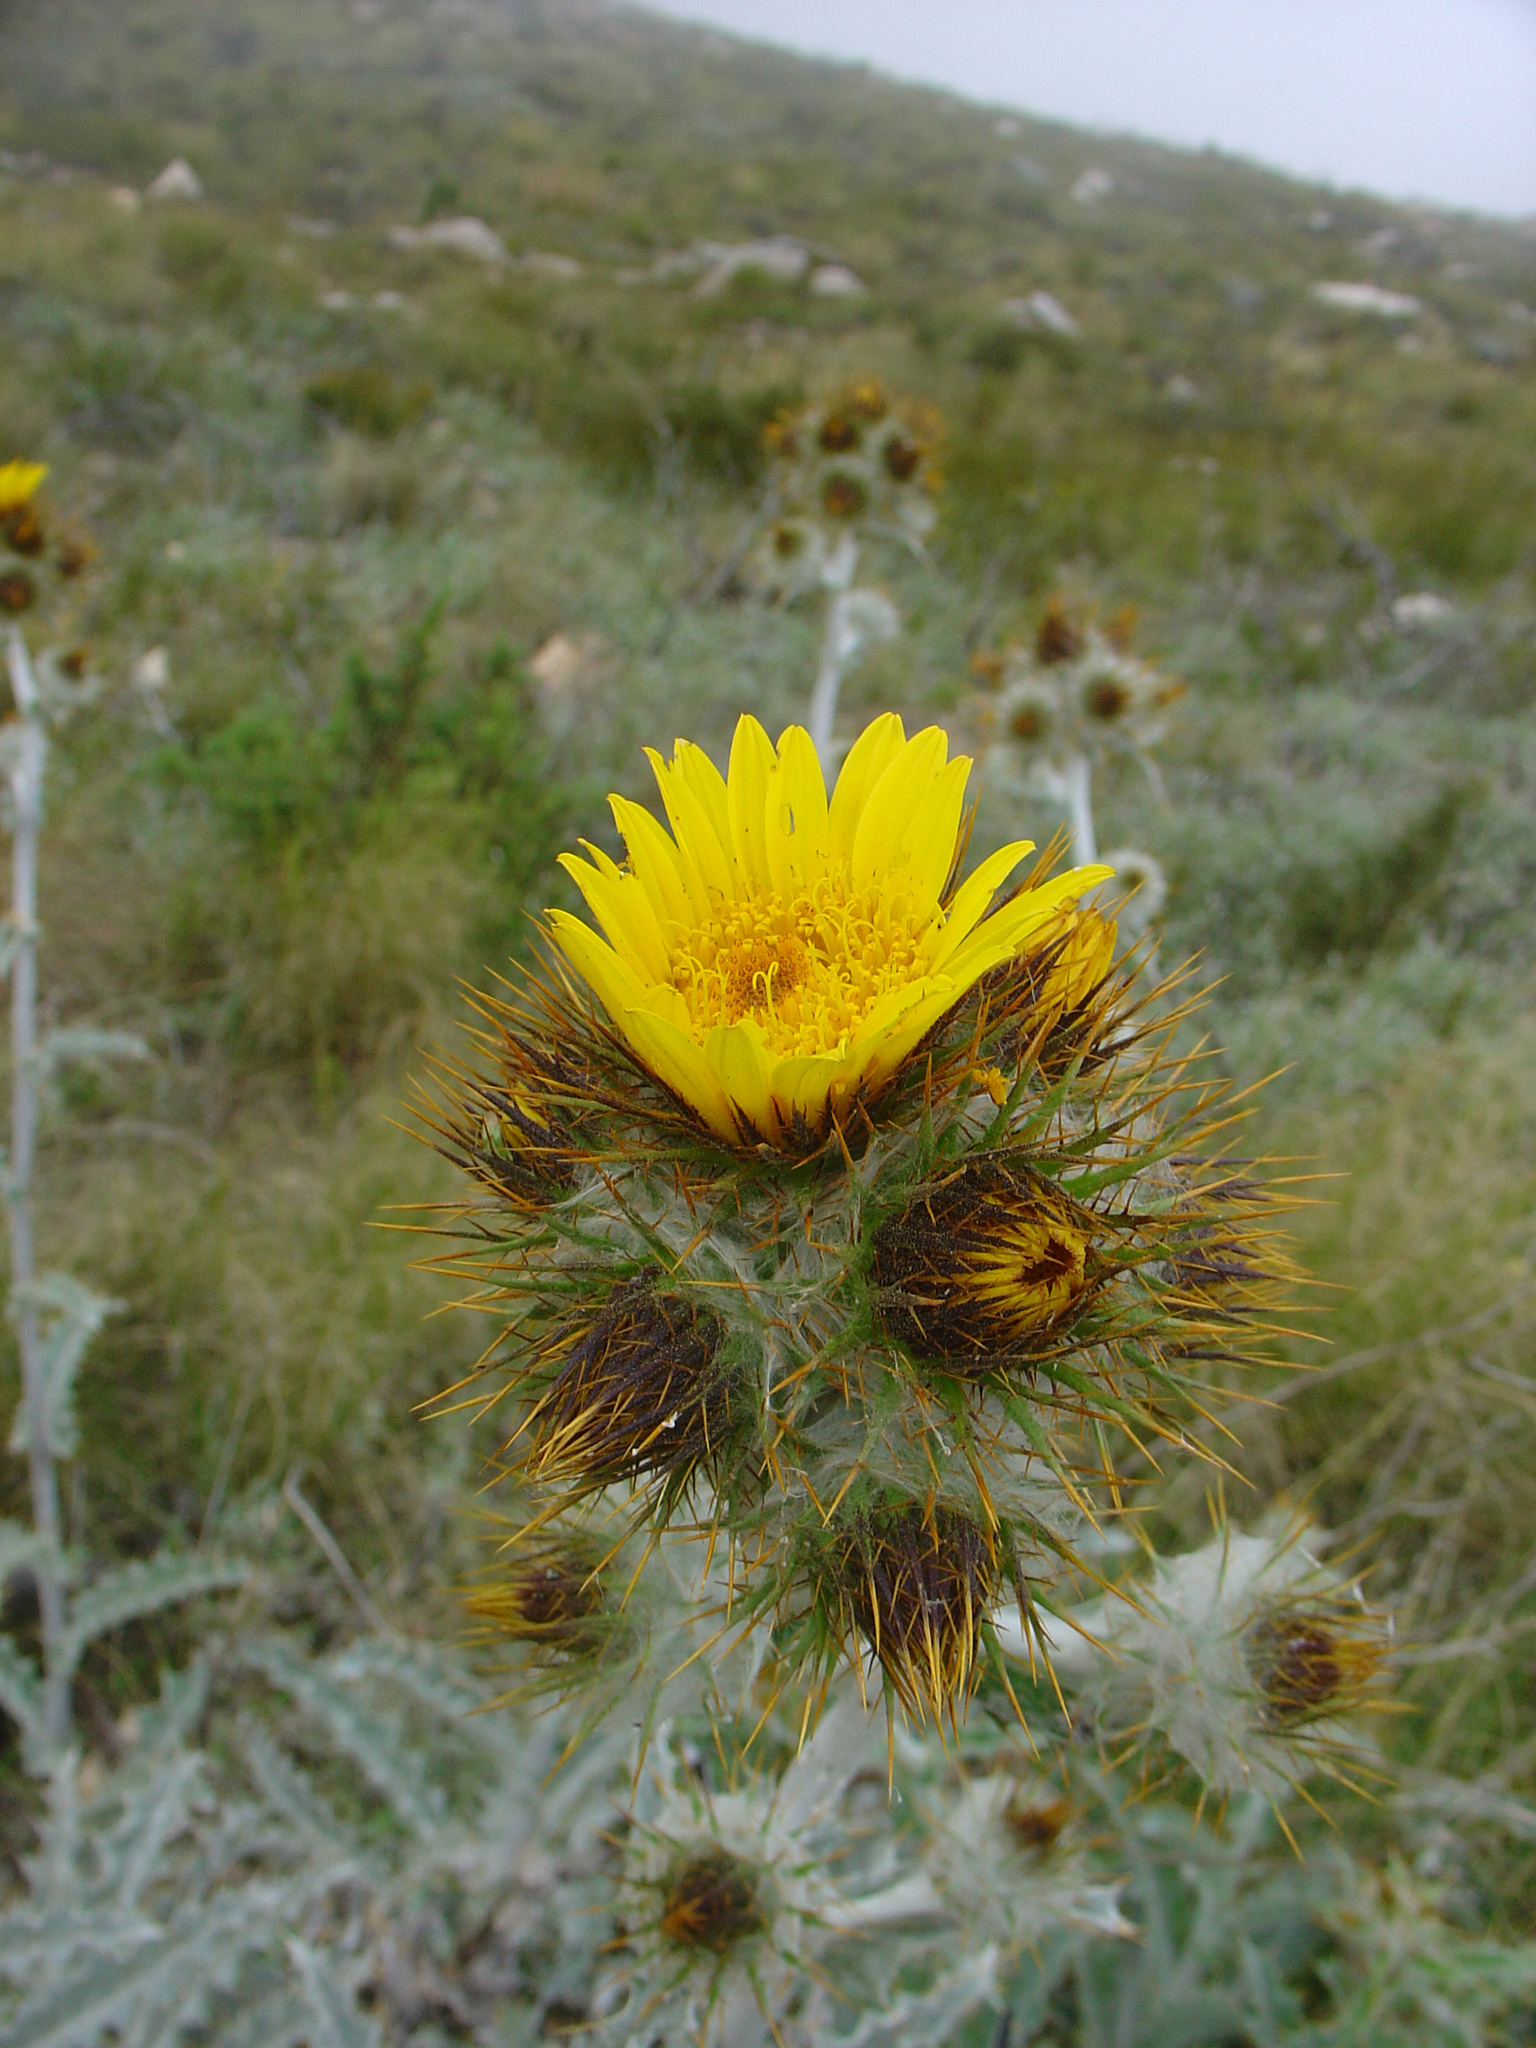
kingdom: Plantae
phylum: Tracheophyta
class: Magnoliopsida
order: Asterales
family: Asteraceae
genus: Berkheya
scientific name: Berkheya francisci
